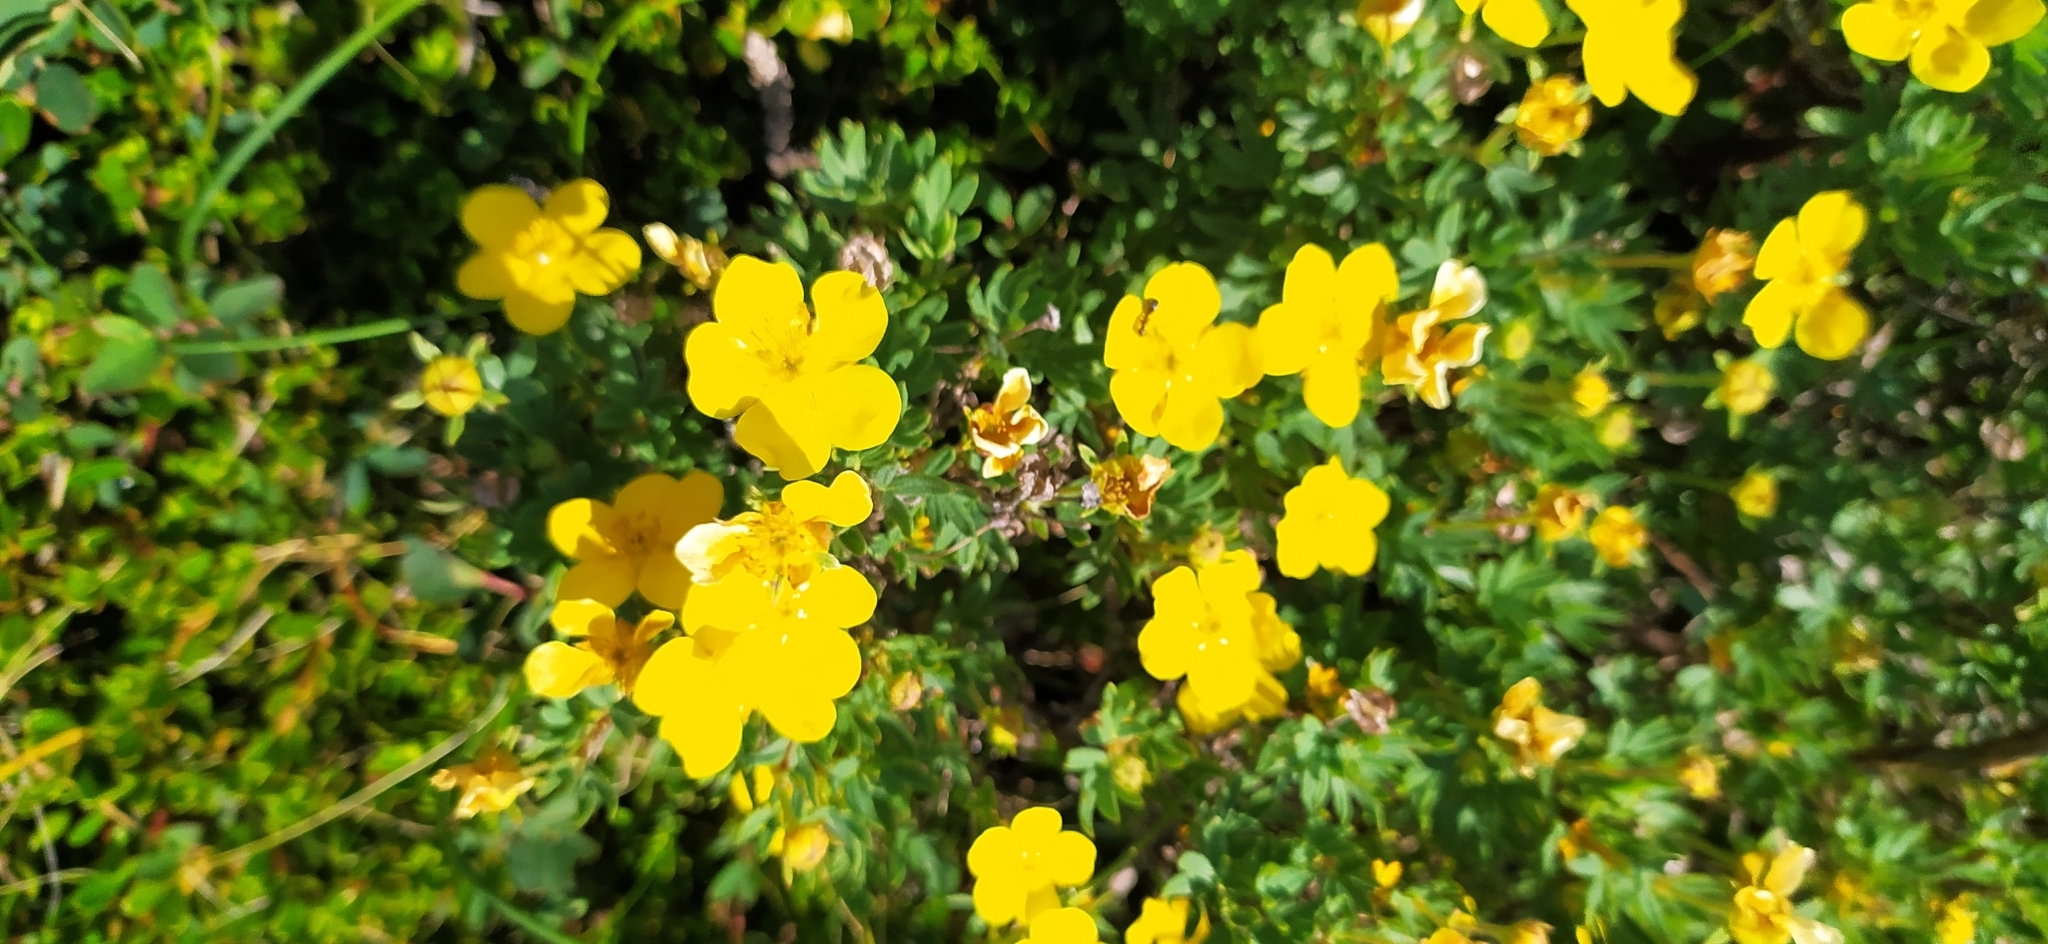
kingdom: Plantae
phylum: Tracheophyta
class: Magnoliopsida
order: Rosales
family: Rosaceae
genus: Dasiphora
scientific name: Dasiphora fruticosa
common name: Shrubby cinquefoil
